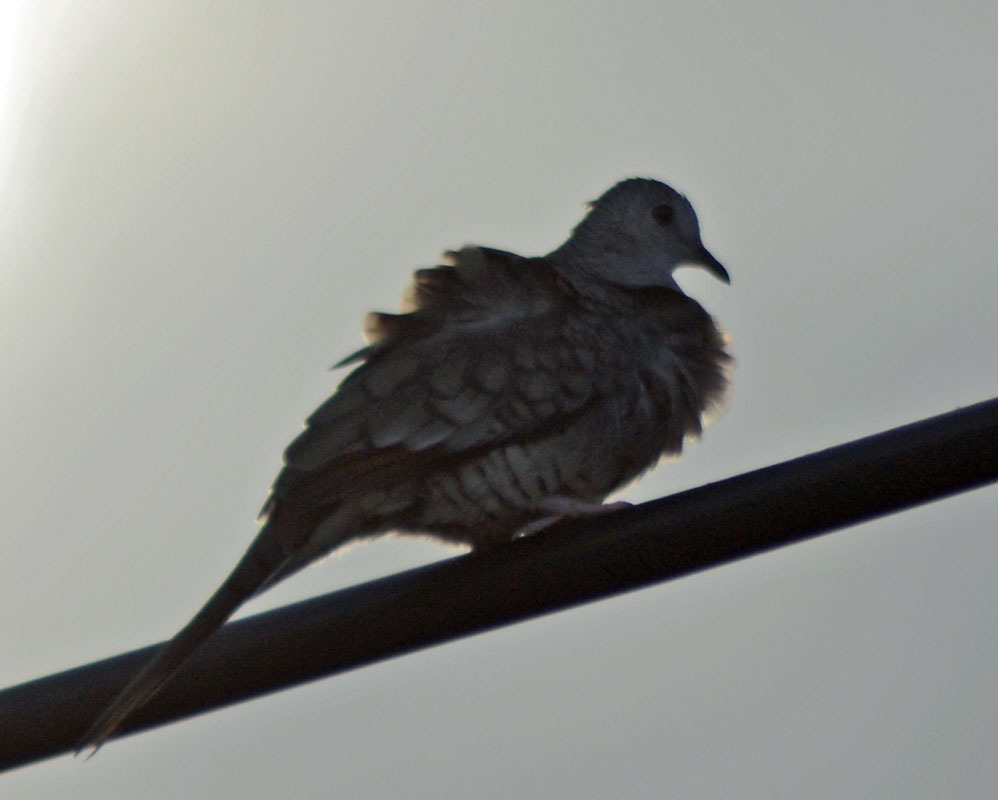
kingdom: Animalia
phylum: Chordata
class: Aves
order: Columbiformes
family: Columbidae
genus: Columbina
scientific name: Columbina inca
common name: Inca dove
